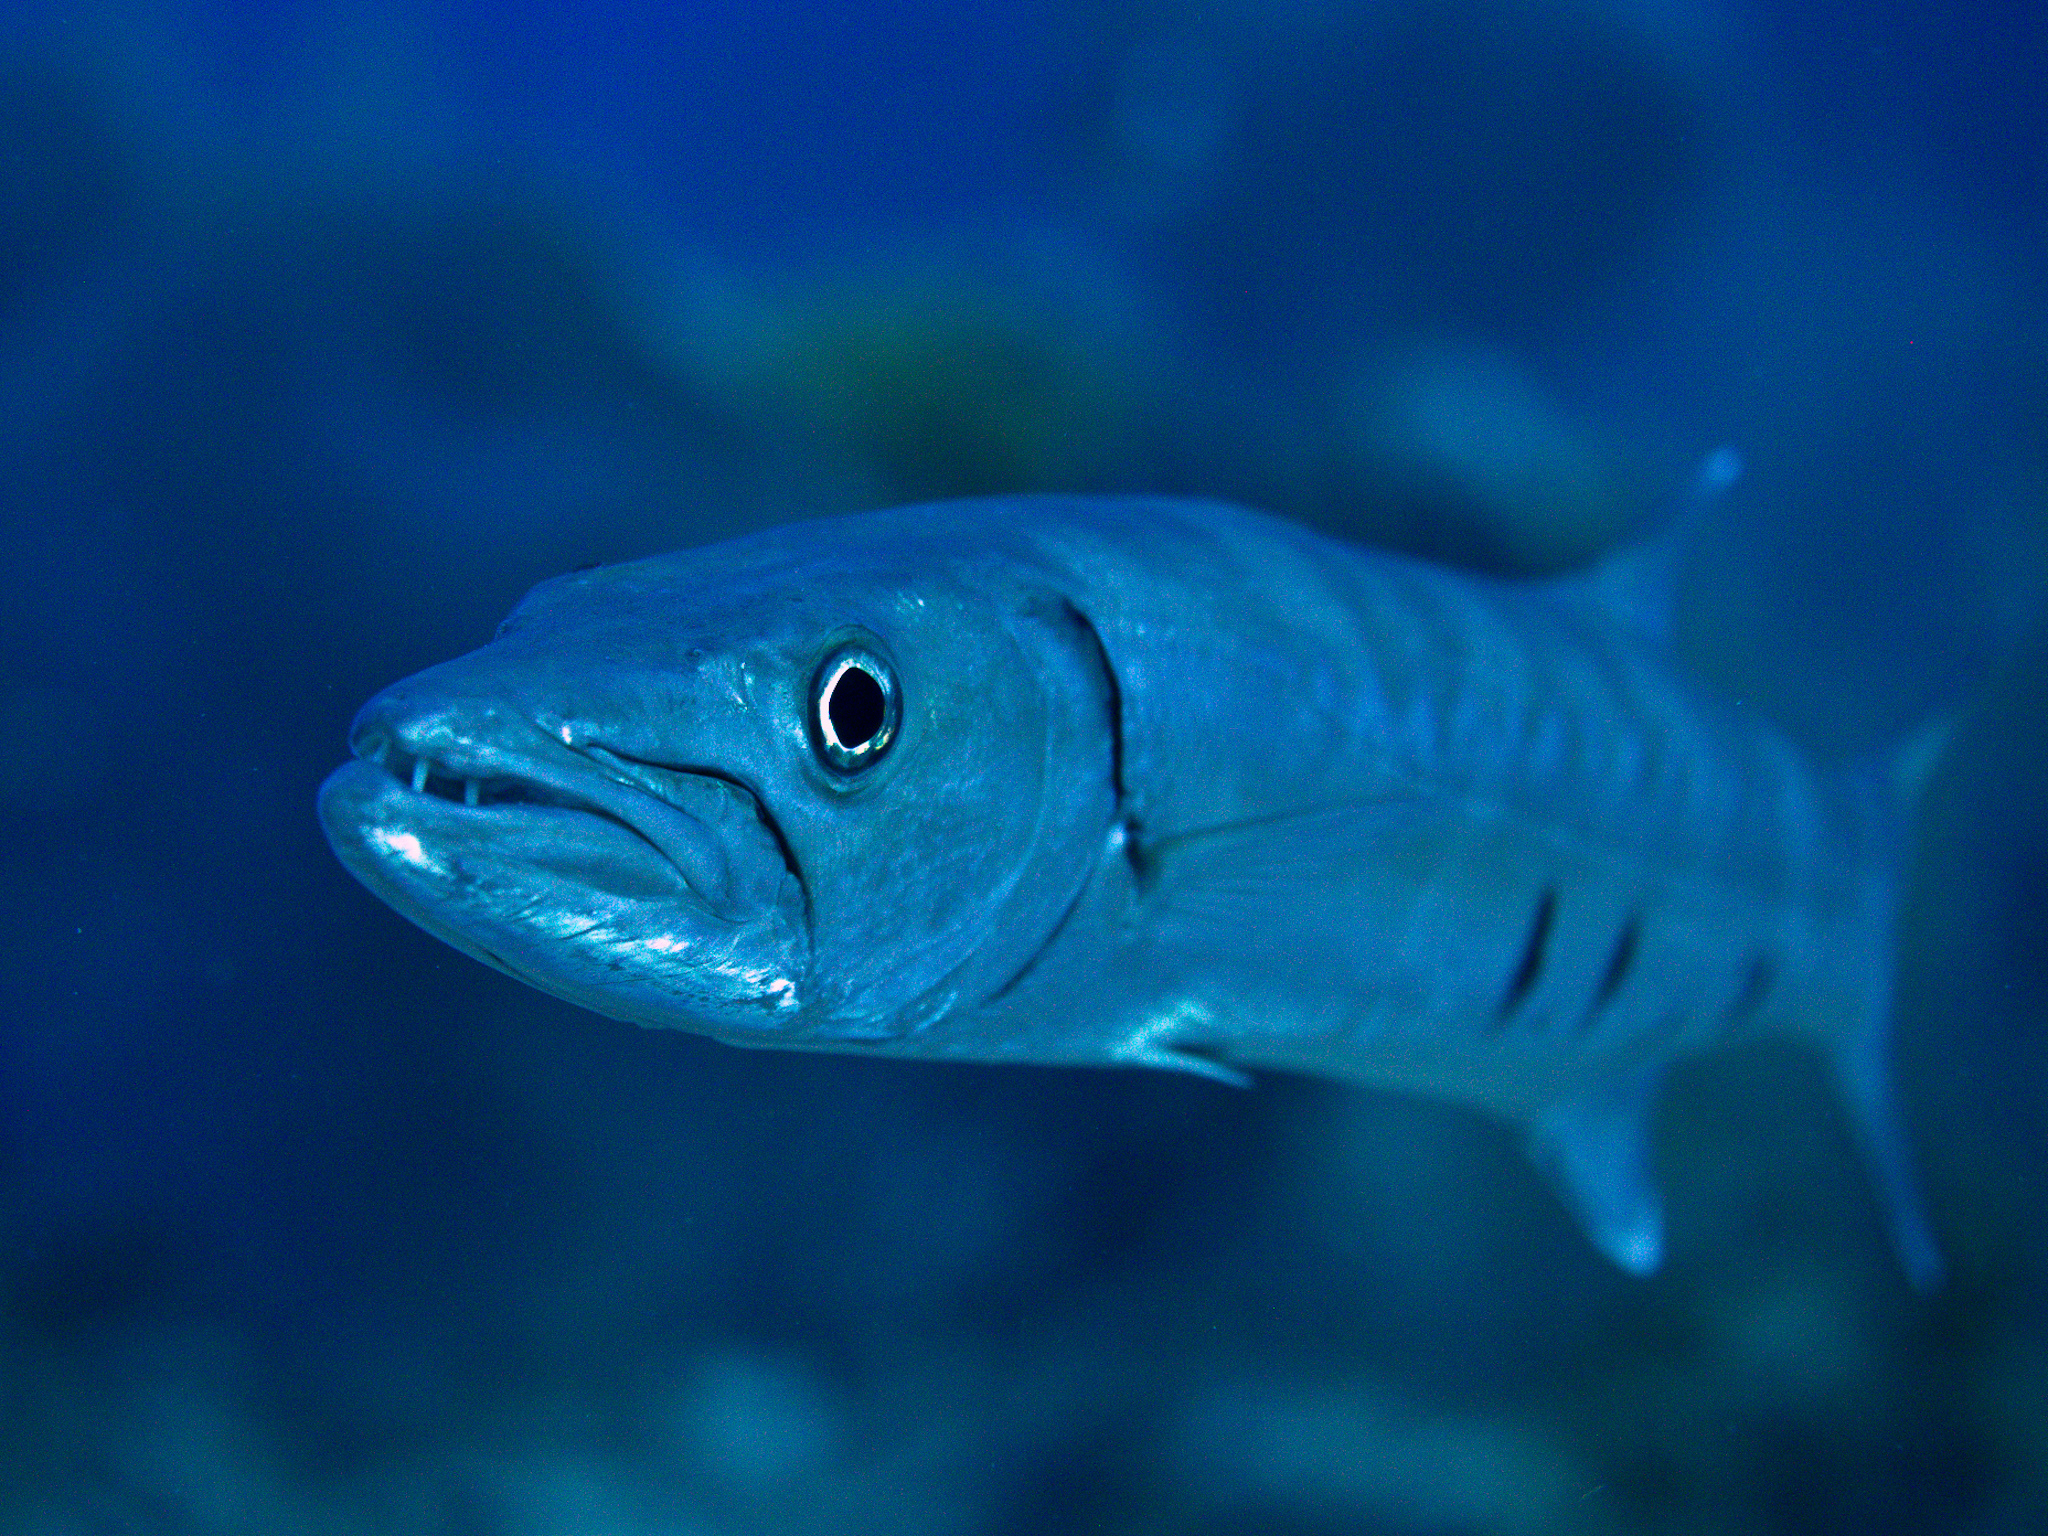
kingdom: Animalia
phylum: Chordata
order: Perciformes
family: Sphyraenidae
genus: Sphyraena
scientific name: Sphyraena barracuda
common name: Great barracuda
